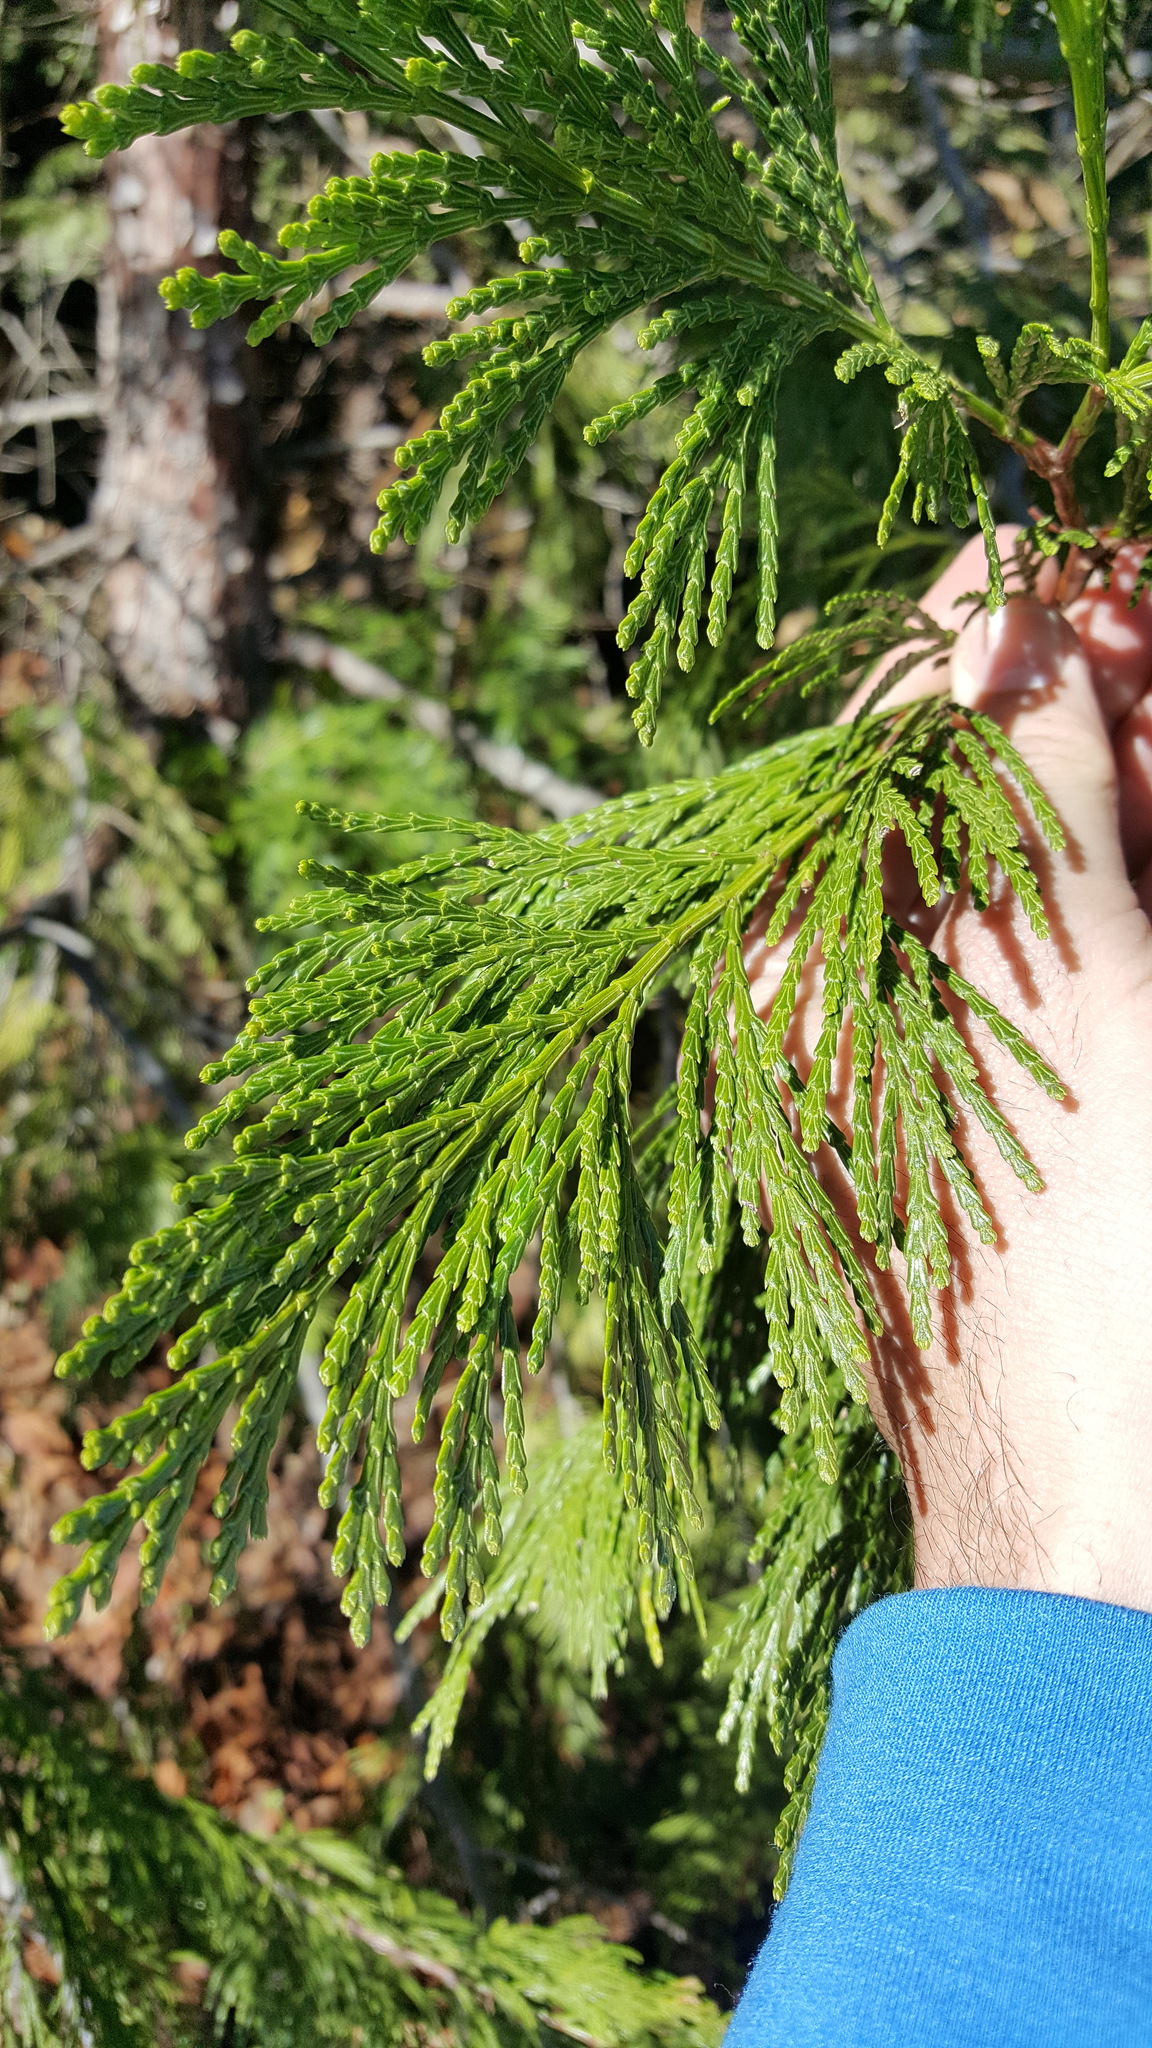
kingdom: Plantae
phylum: Tracheophyta
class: Pinopsida
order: Pinales
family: Cupressaceae
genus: Calocedrus
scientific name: Calocedrus decurrens
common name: Californian incense-cedar
